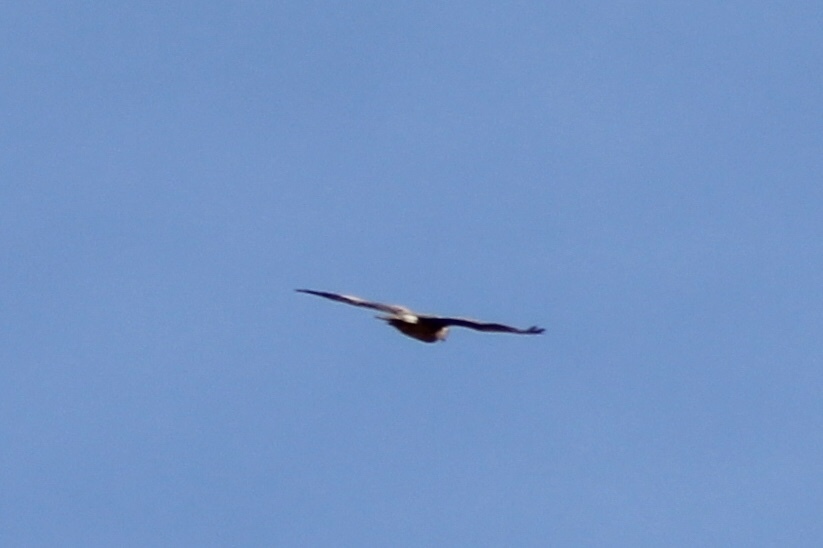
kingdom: Animalia
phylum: Chordata
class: Aves
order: Accipitriformes
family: Accipitridae
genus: Circus
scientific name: Circus cyaneus
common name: Hen harrier
